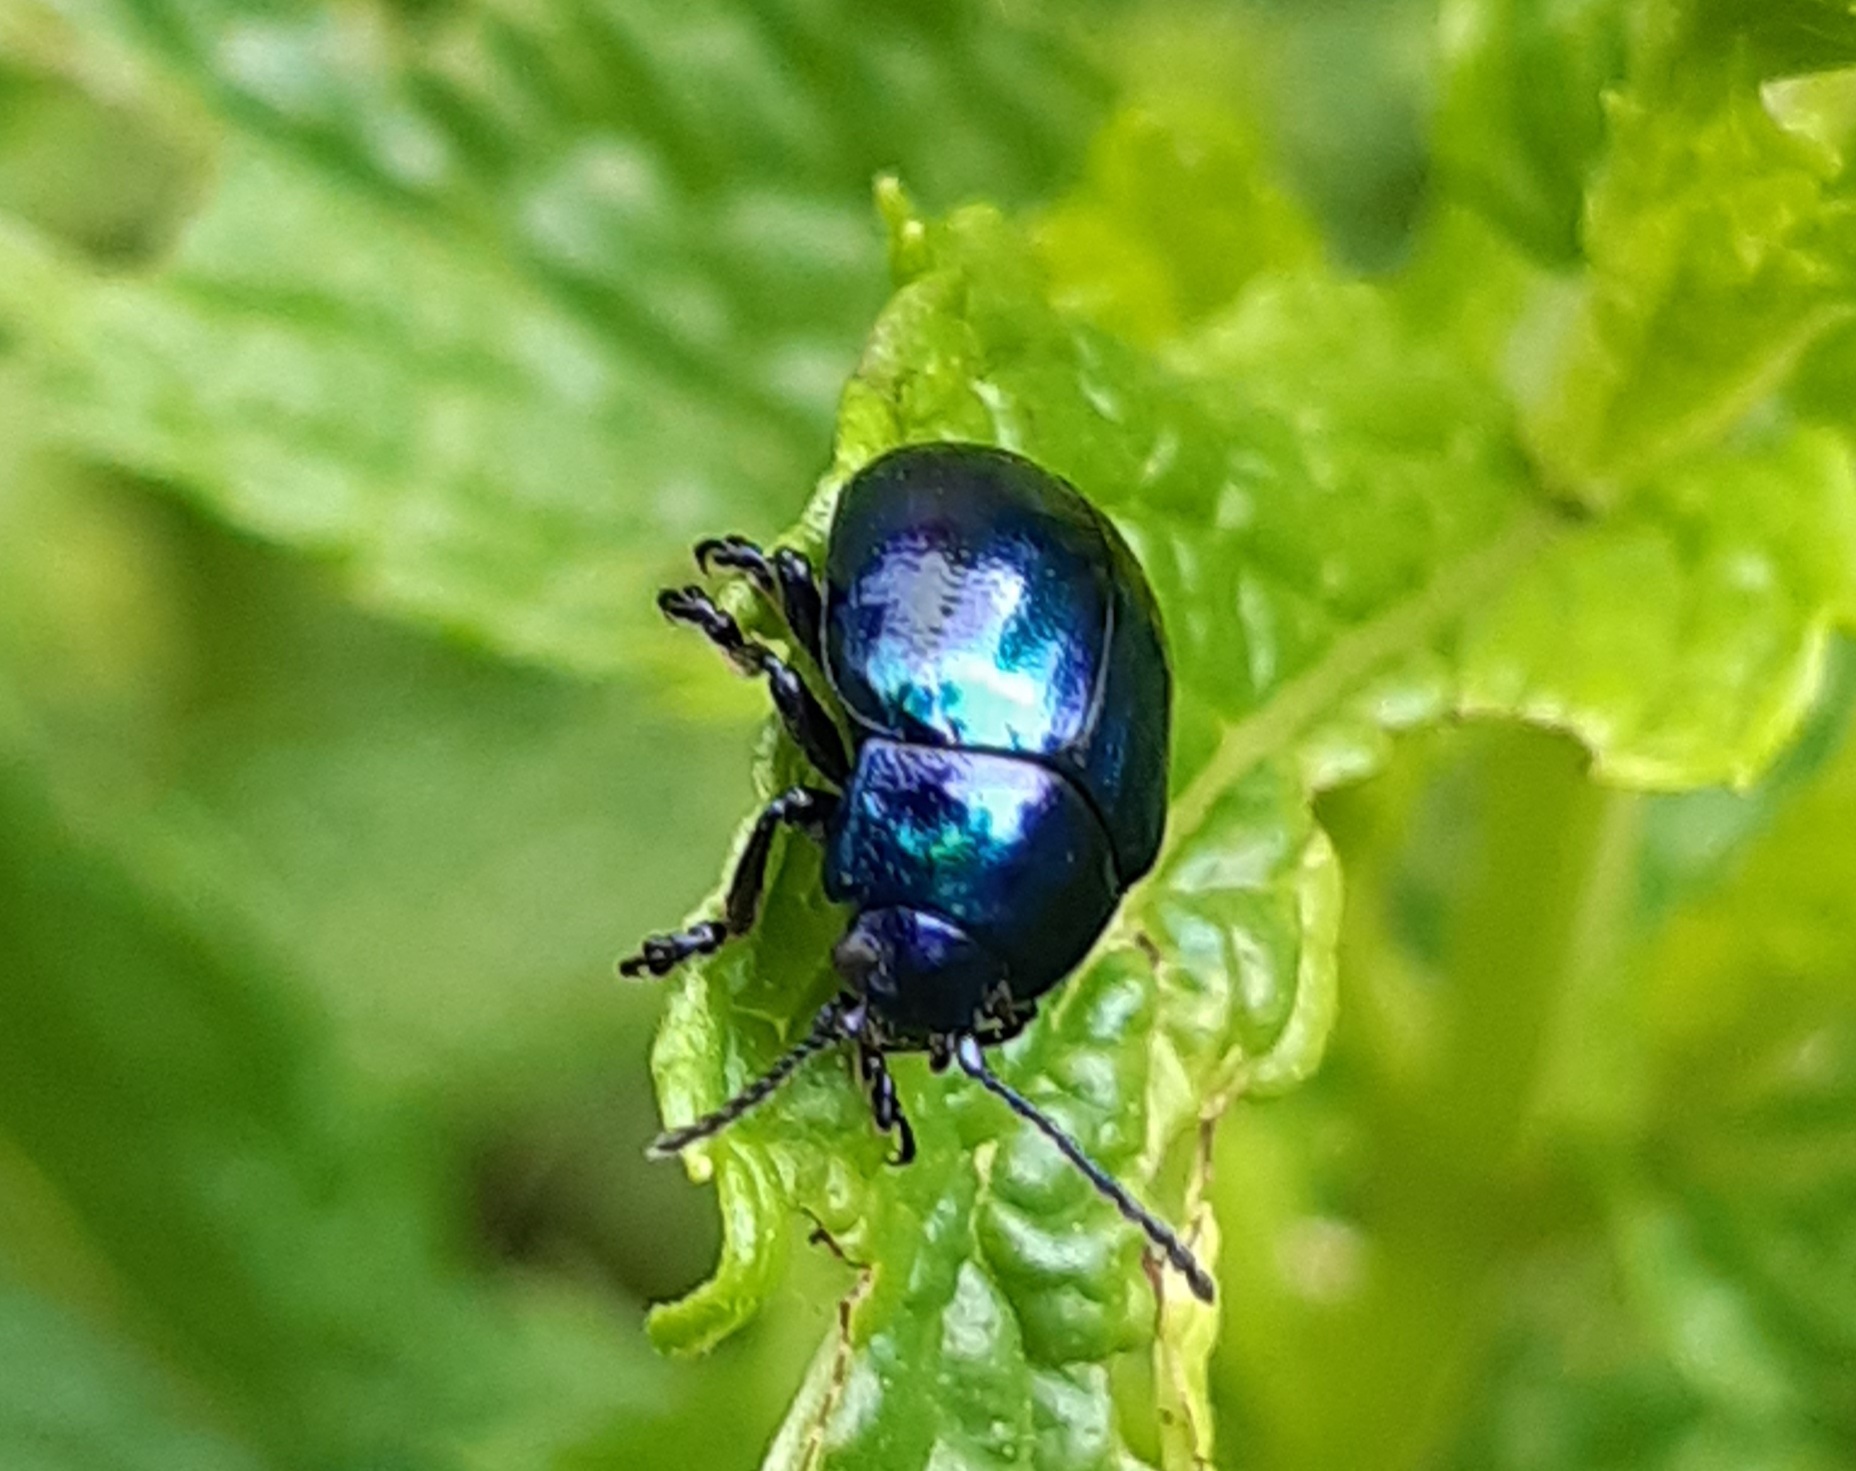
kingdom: Animalia
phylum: Arthropoda
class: Insecta
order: Coleoptera
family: Chrysomelidae
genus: Chrysolina
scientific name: Chrysolina coerulans
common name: Blue mint beetle
